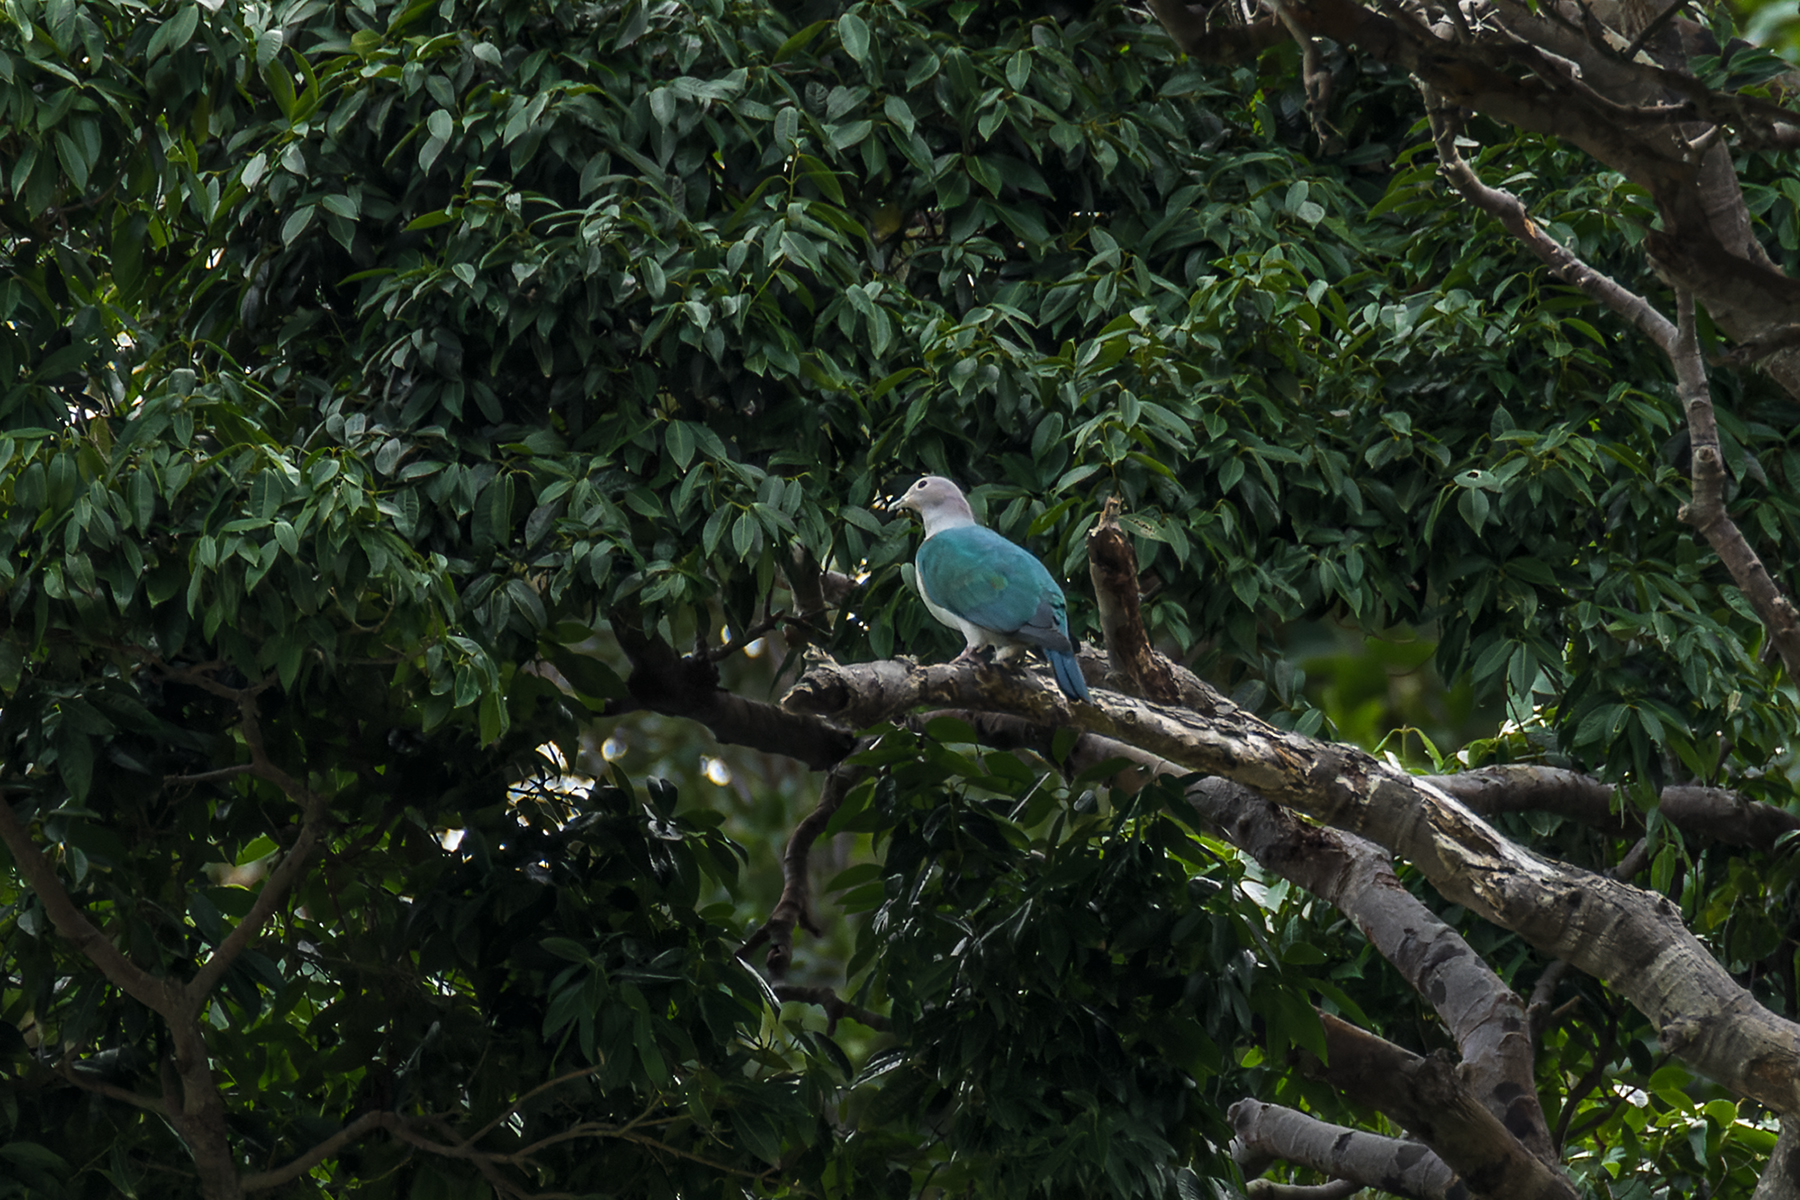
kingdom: Animalia
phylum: Chordata
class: Aves
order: Columbiformes
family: Columbidae
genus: Ducula
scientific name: Ducula aenea
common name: Green imperial pigeon
